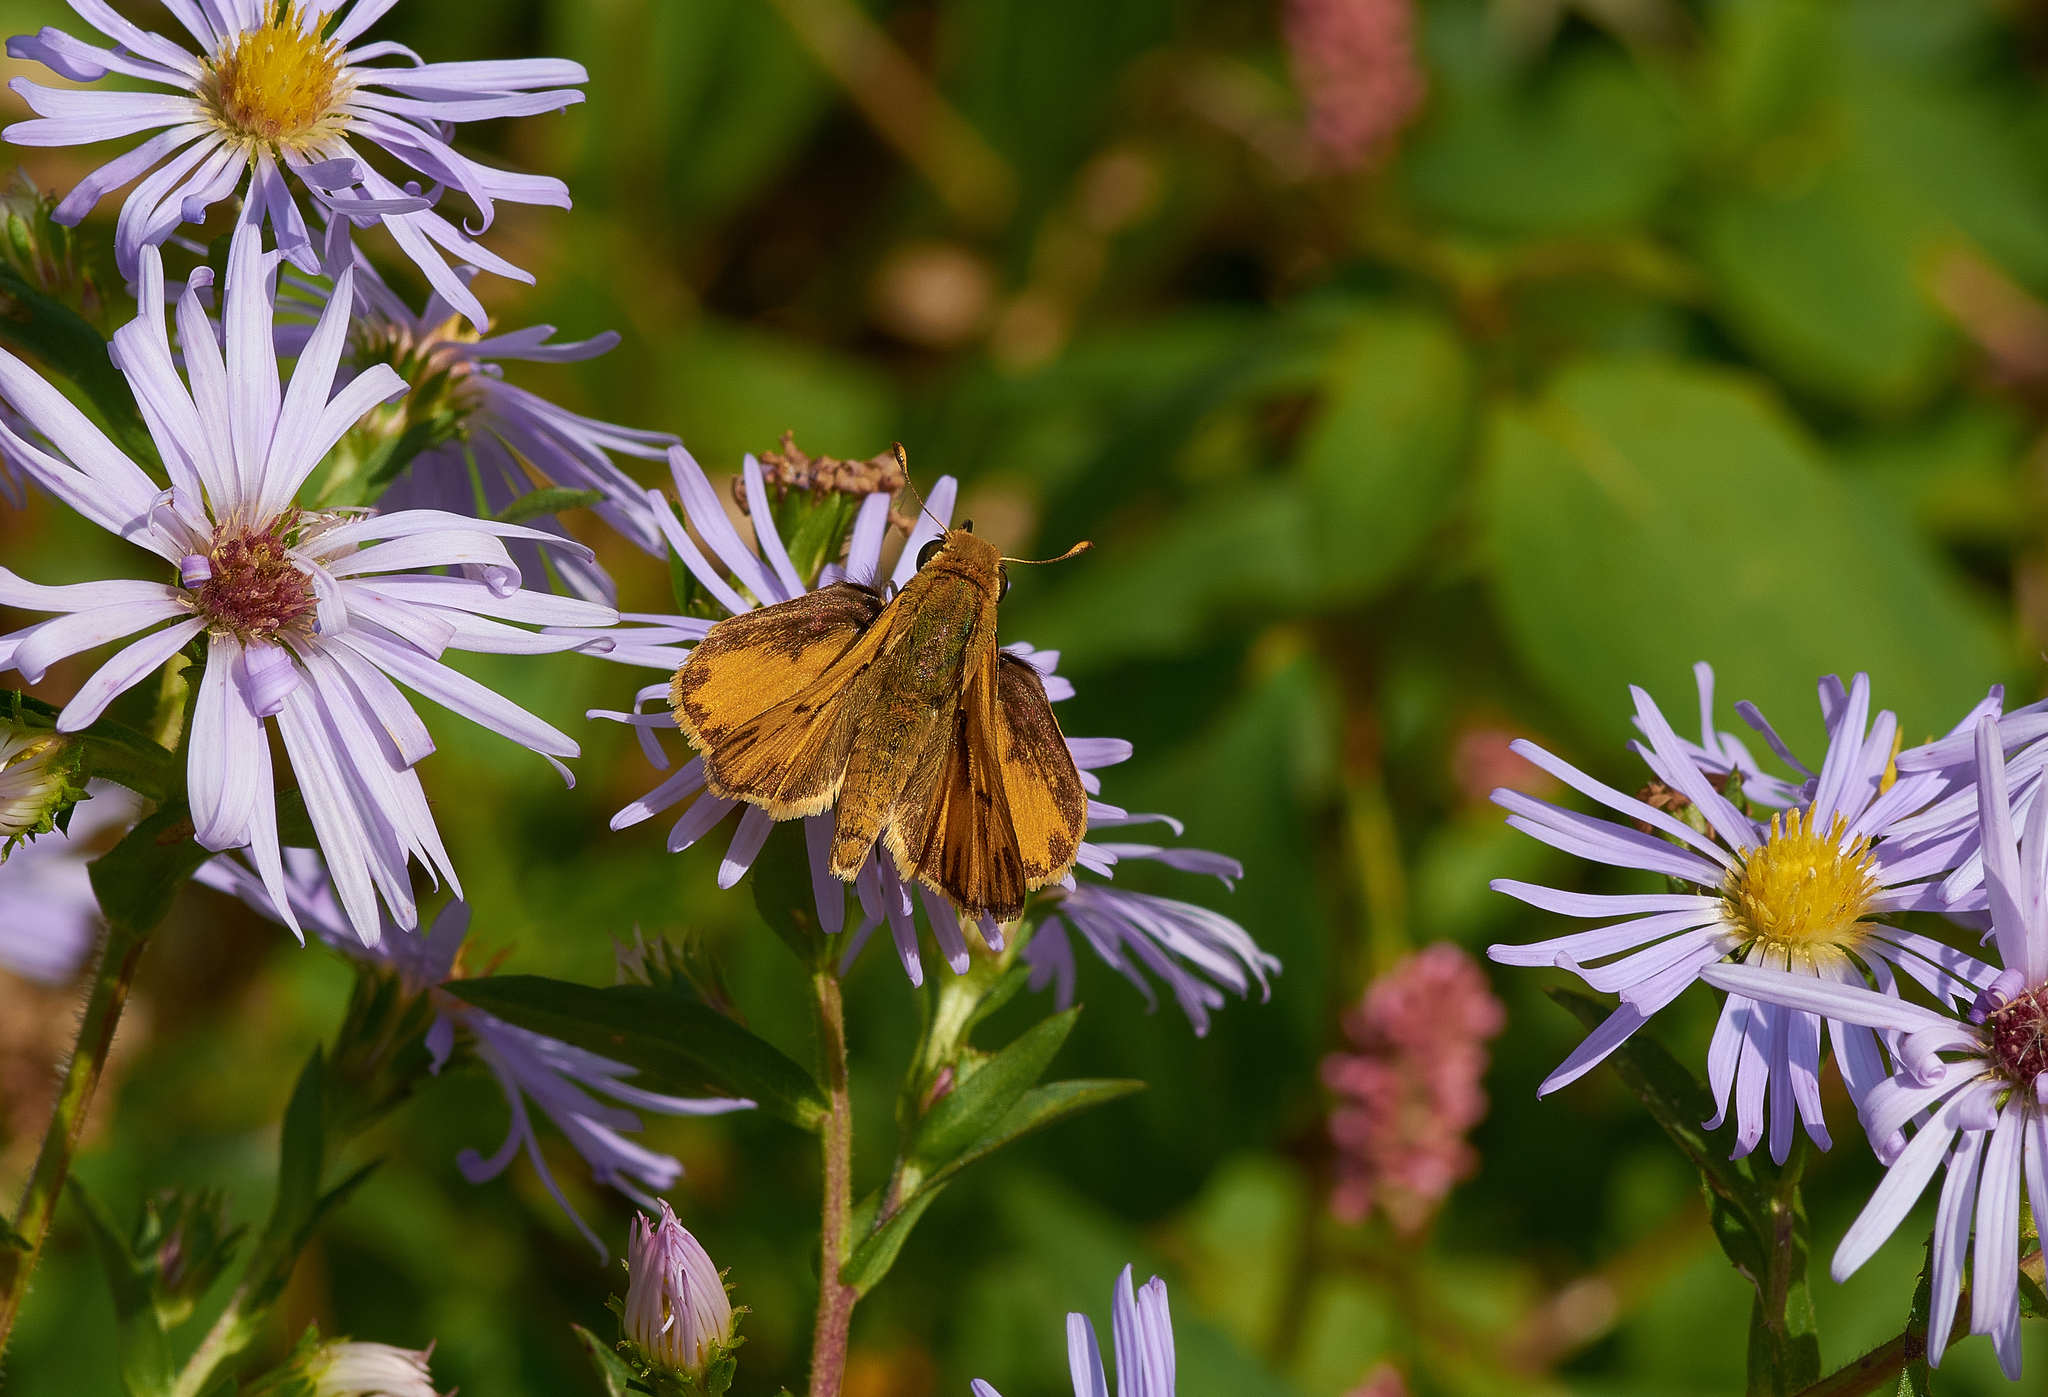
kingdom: Animalia
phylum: Arthropoda
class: Insecta
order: Lepidoptera
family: Hesperiidae
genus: Hylephila
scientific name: Hylephila phyleus
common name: Fiery skipper
